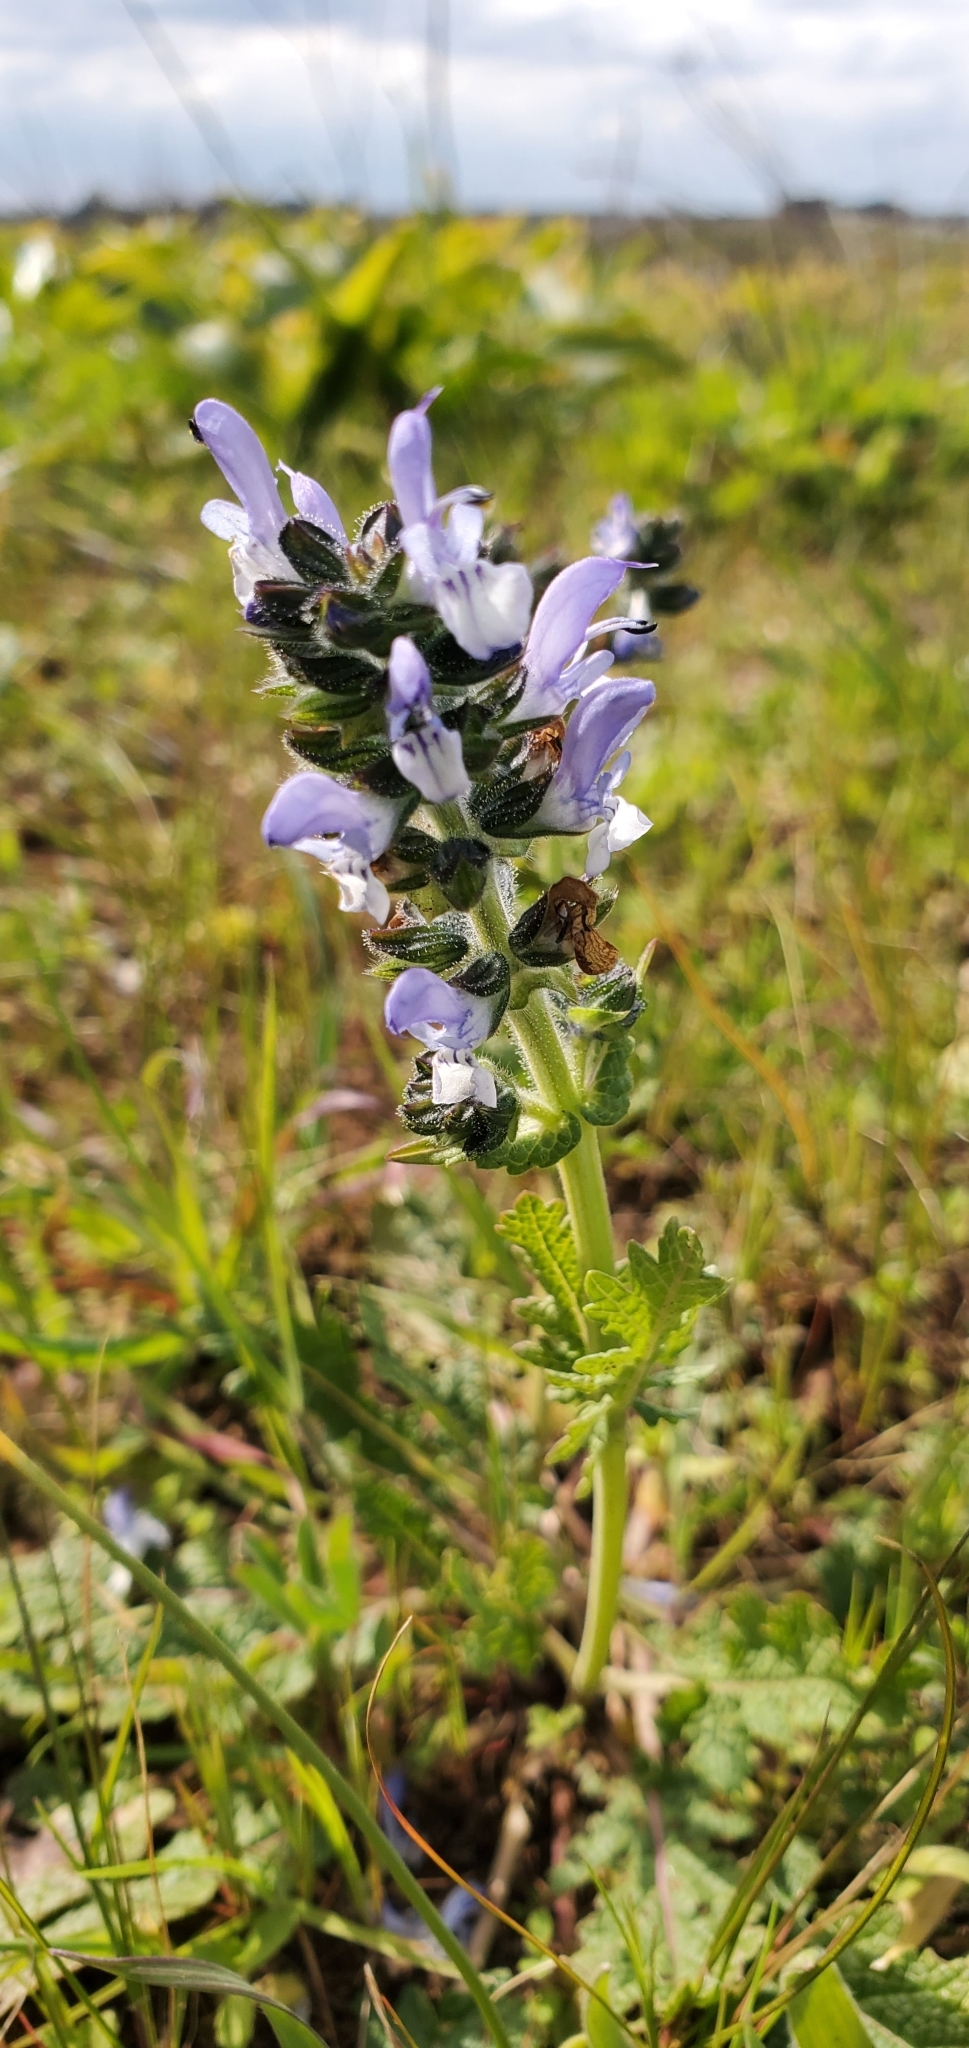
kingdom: Plantae
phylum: Tracheophyta
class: Magnoliopsida
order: Lamiales
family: Lamiaceae
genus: Salvia
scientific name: Salvia clandestina
